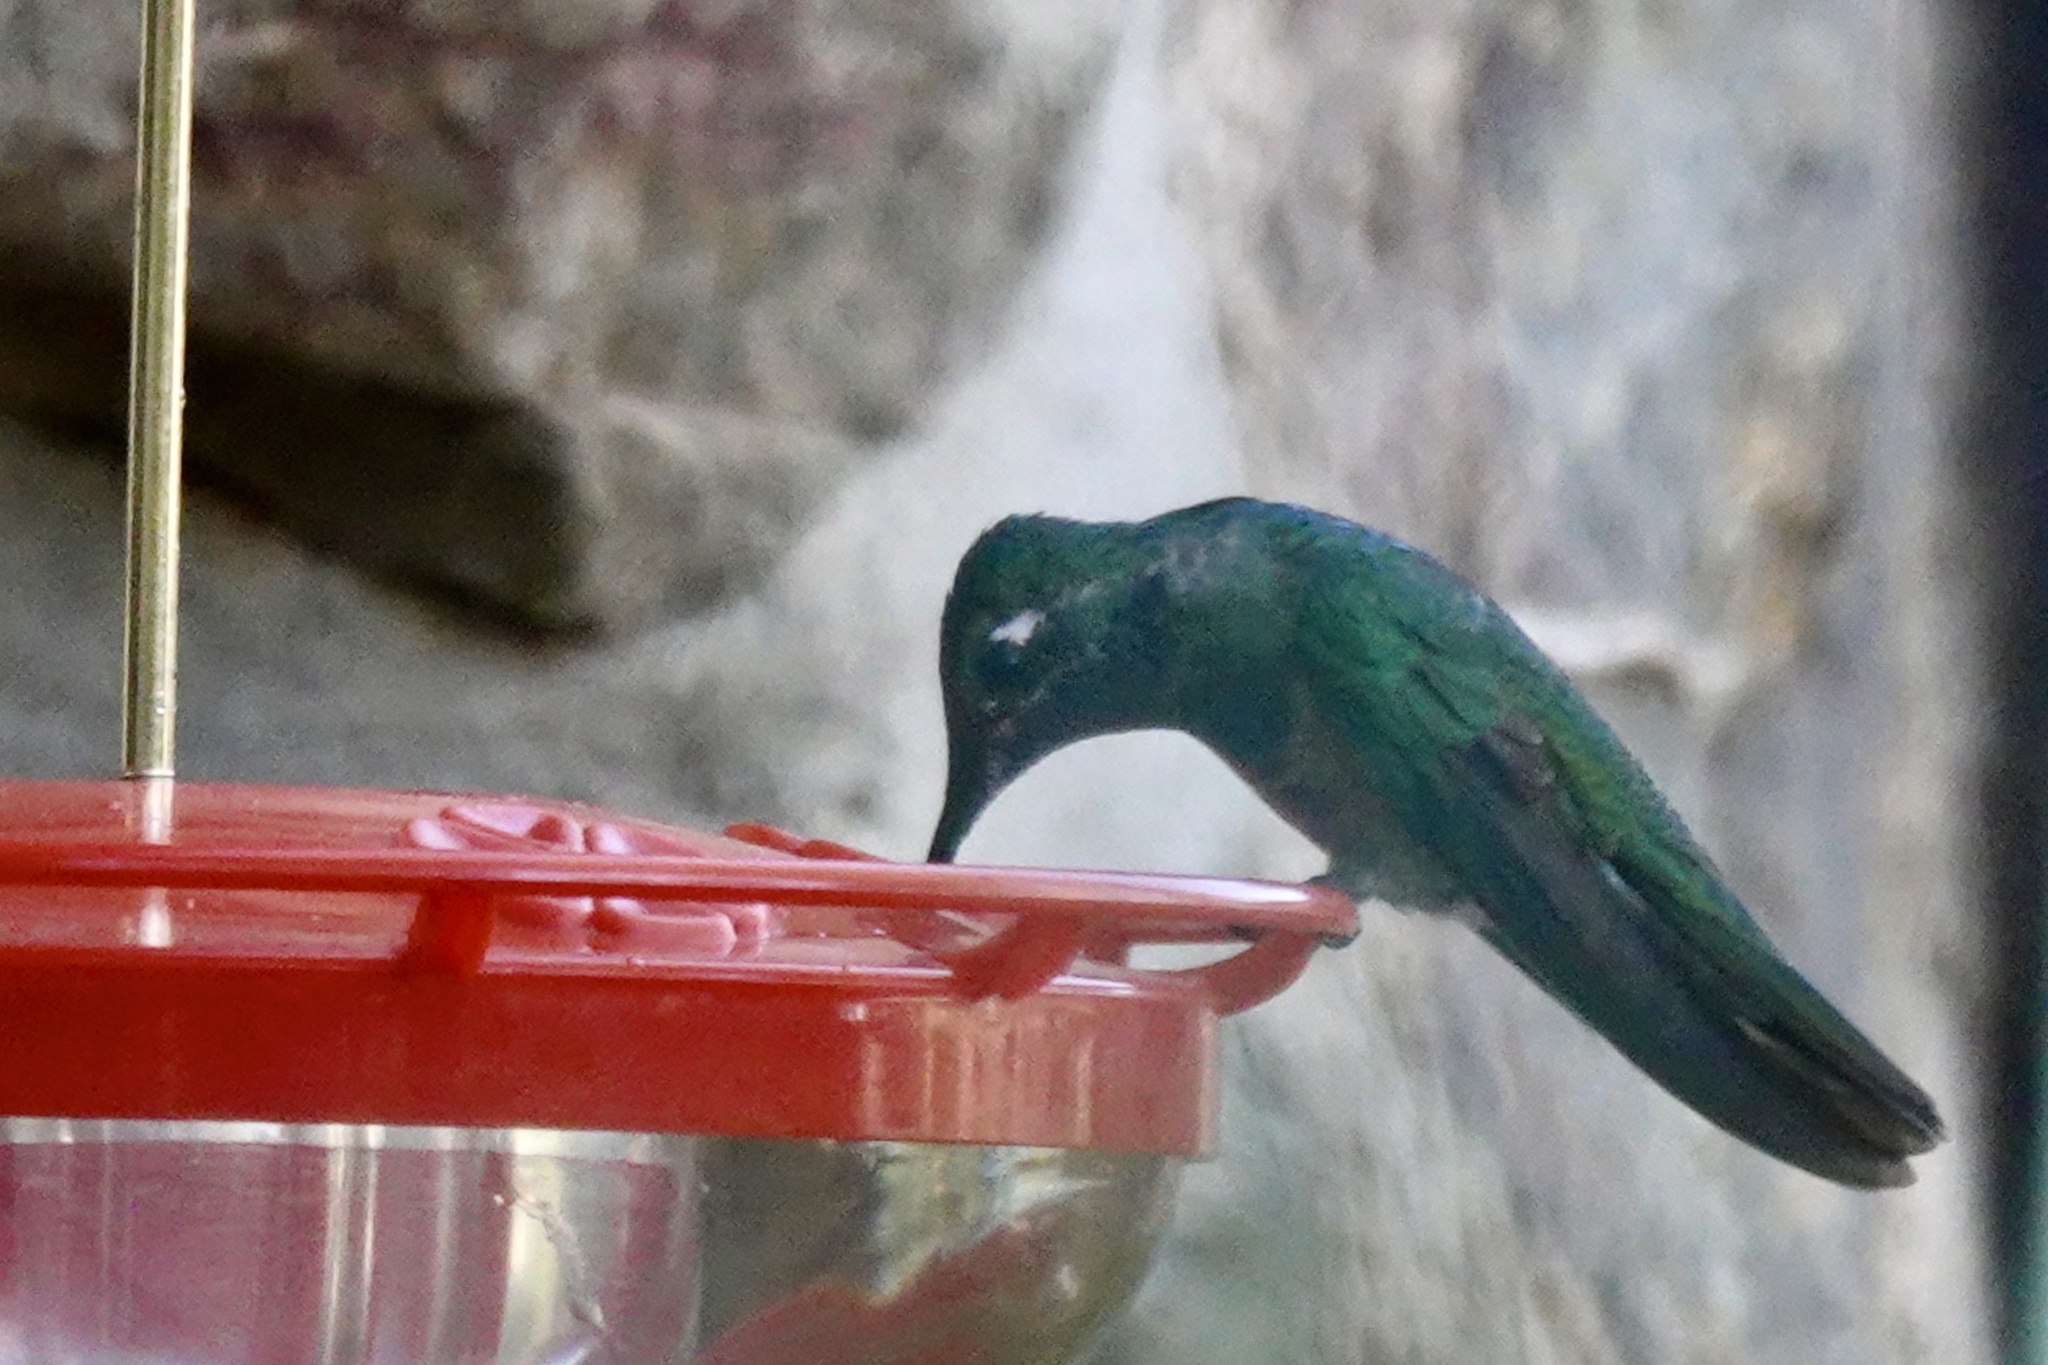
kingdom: Animalia
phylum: Chordata
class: Aves
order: Apodiformes
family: Trochilidae
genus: Eugenes
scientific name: Eugenes fulgens
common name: Magnificent hummingbird
